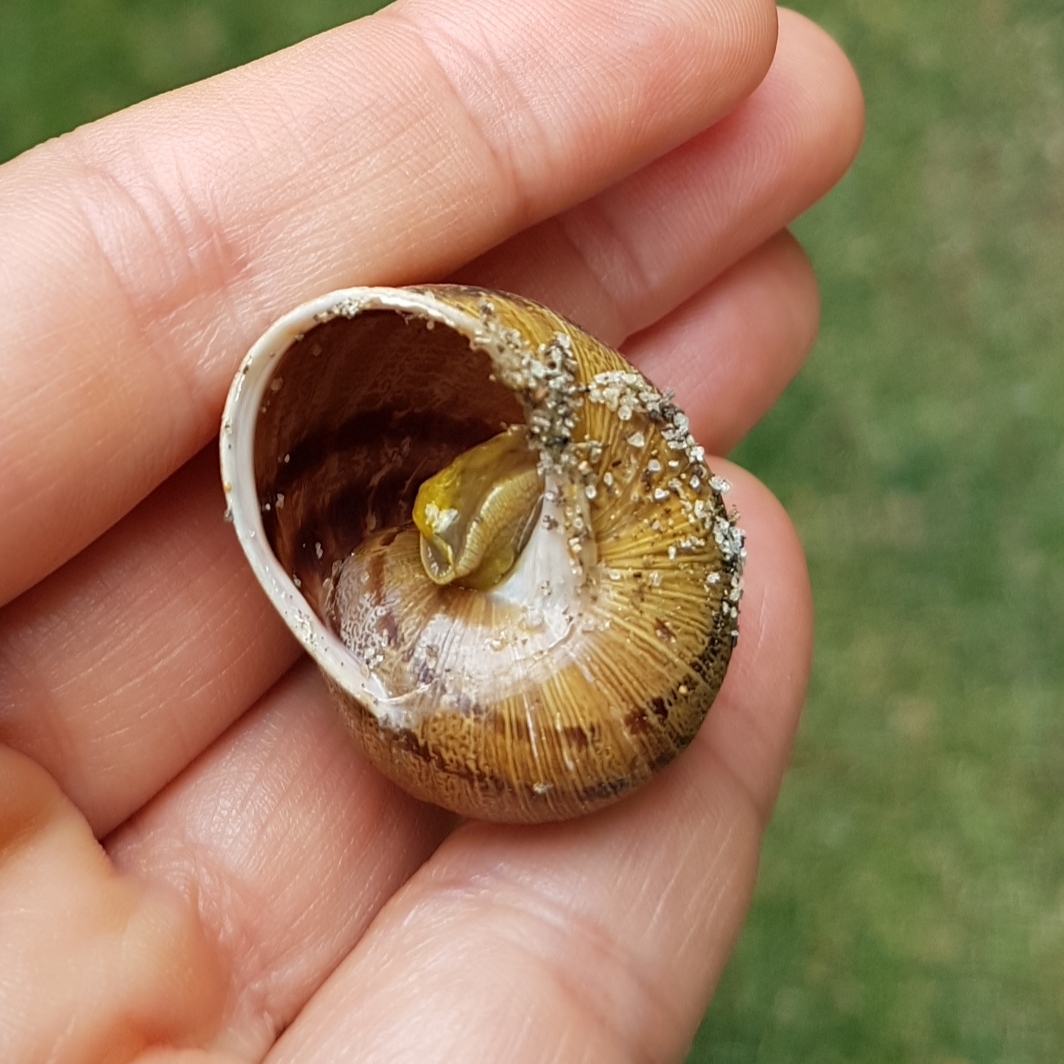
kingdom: Animalia
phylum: Mollusca
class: Gastropoda
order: Stylommatophora
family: Helicidae
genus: Cornu
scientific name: Cornu aspersum
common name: Brown garden snail
